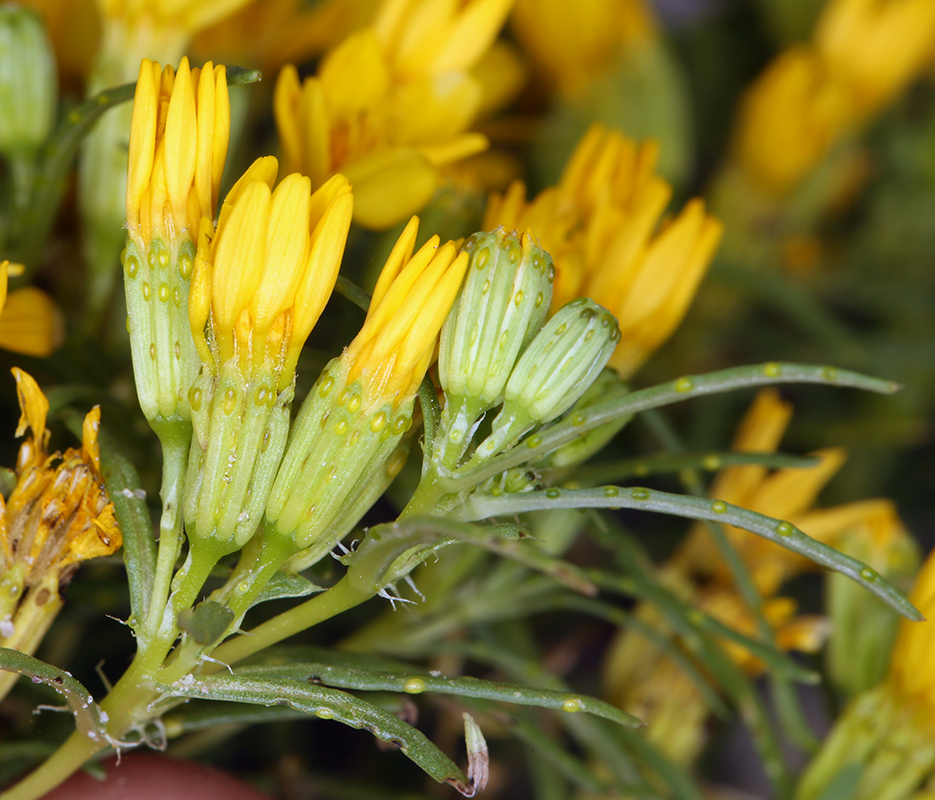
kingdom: Plantae
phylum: Tracheophyta
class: Magnoliopsida
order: Asterales
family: Asteraceae
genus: Pectis
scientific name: Pectis papposa
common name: Many-bristle chinchweed
